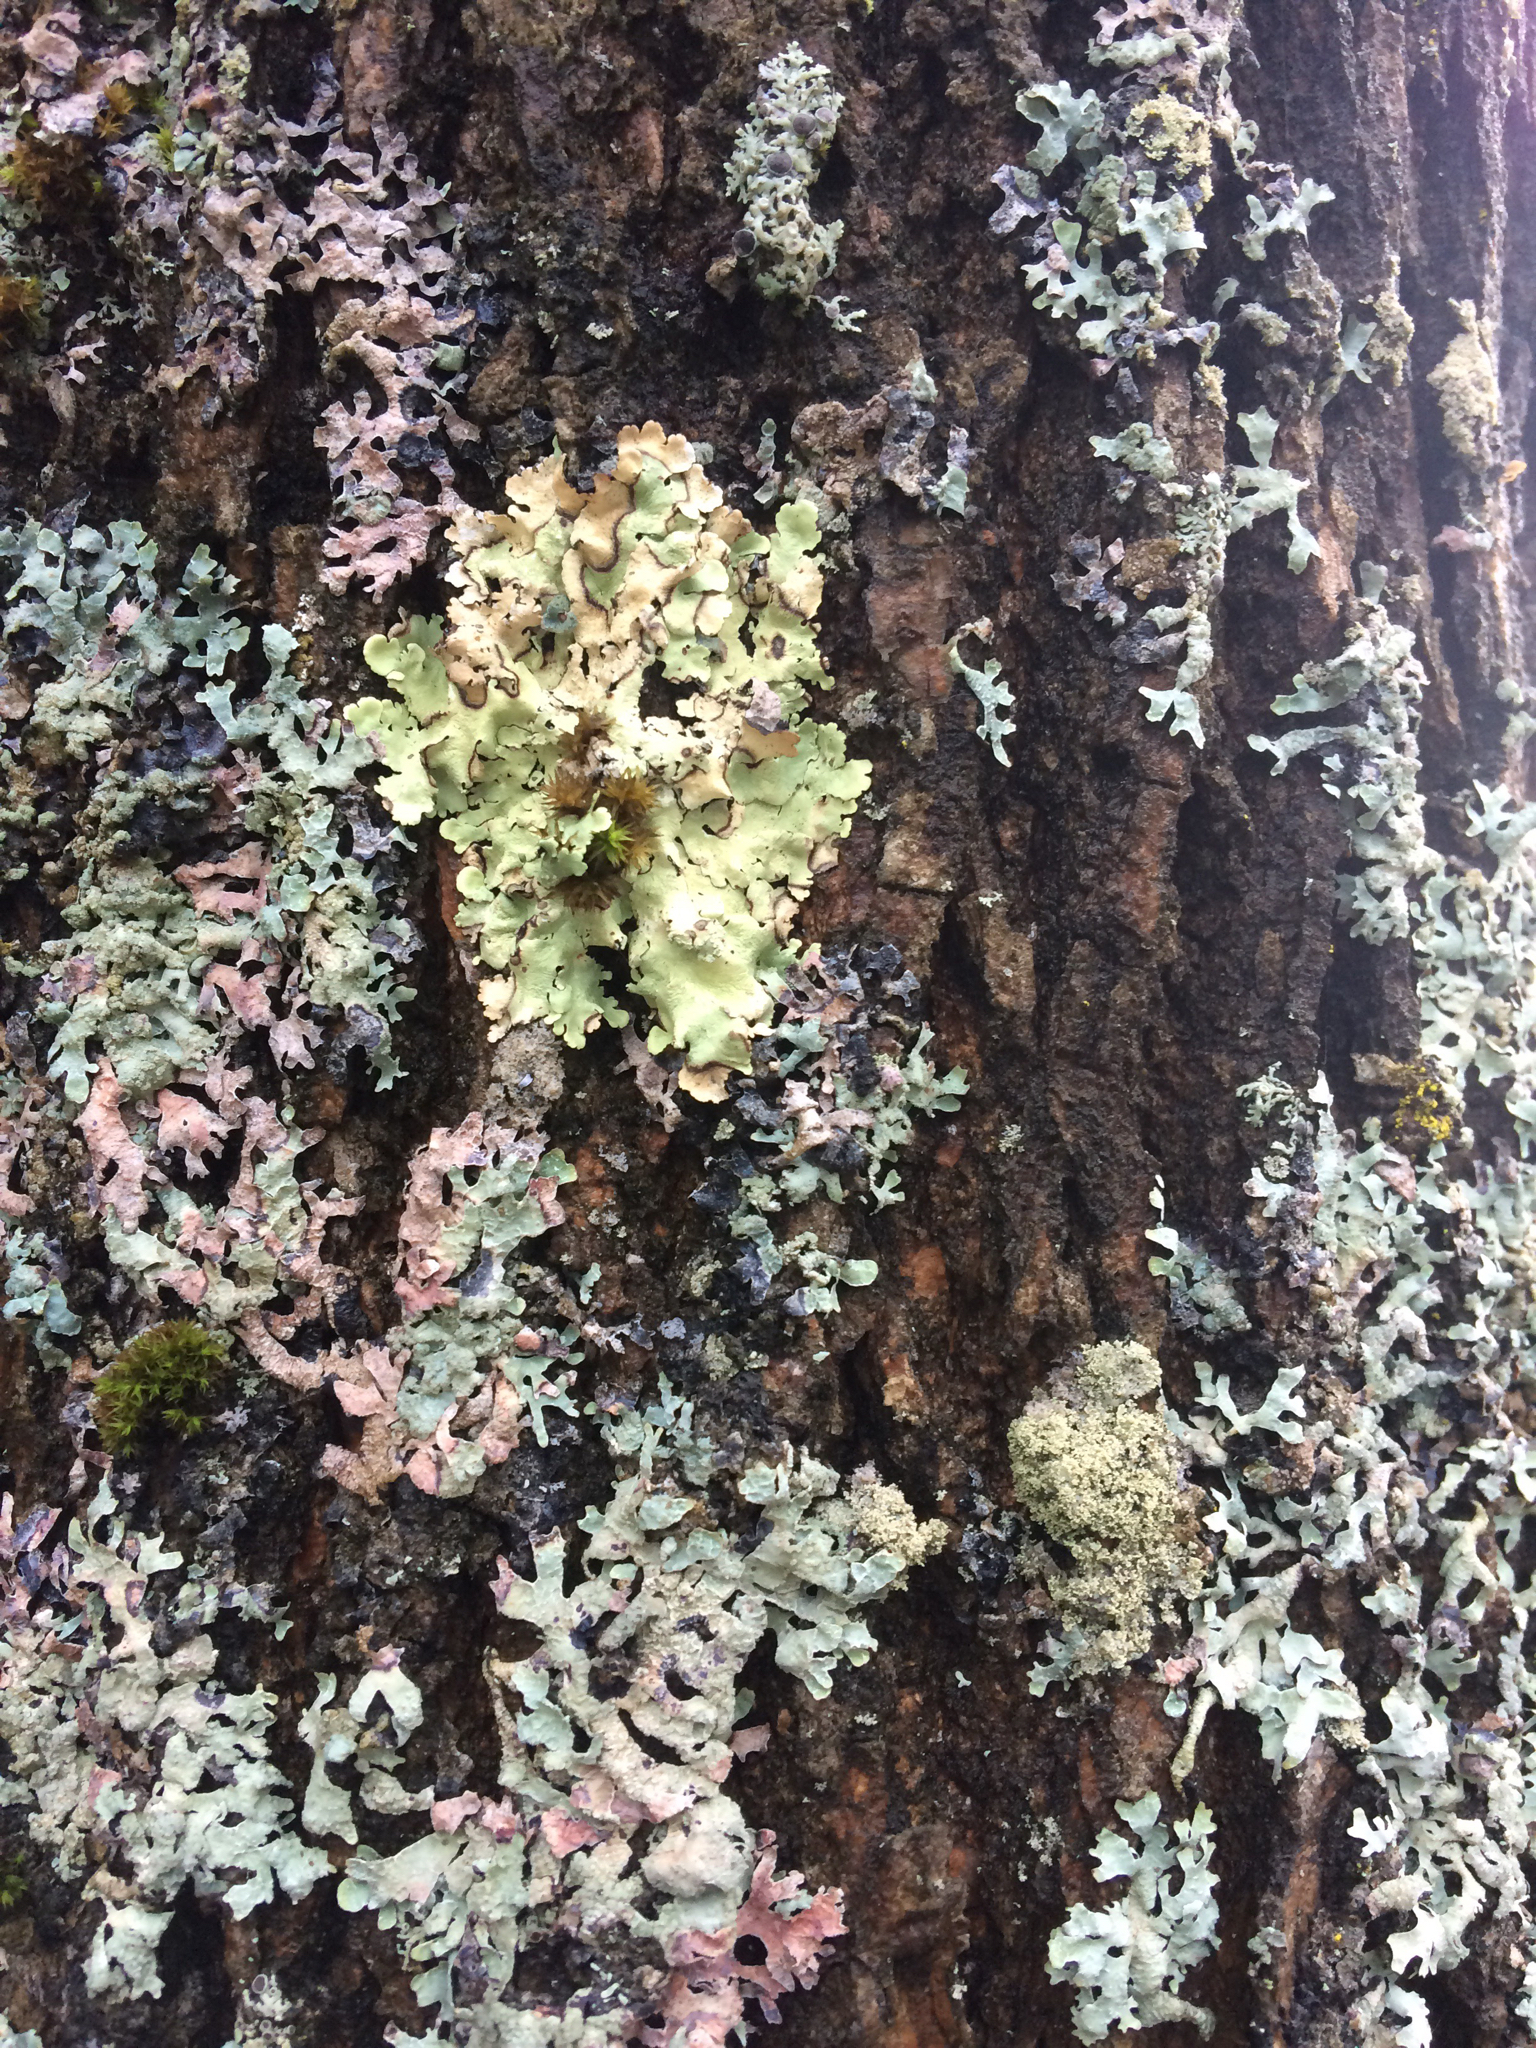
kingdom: Fungi
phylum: Ascomycota
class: Lecanoromycetes
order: Lecanorales
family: Parmeliaceae
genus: Flavoparmelia
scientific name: Flavoparmelia caperata
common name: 40-mile per hour lichen
